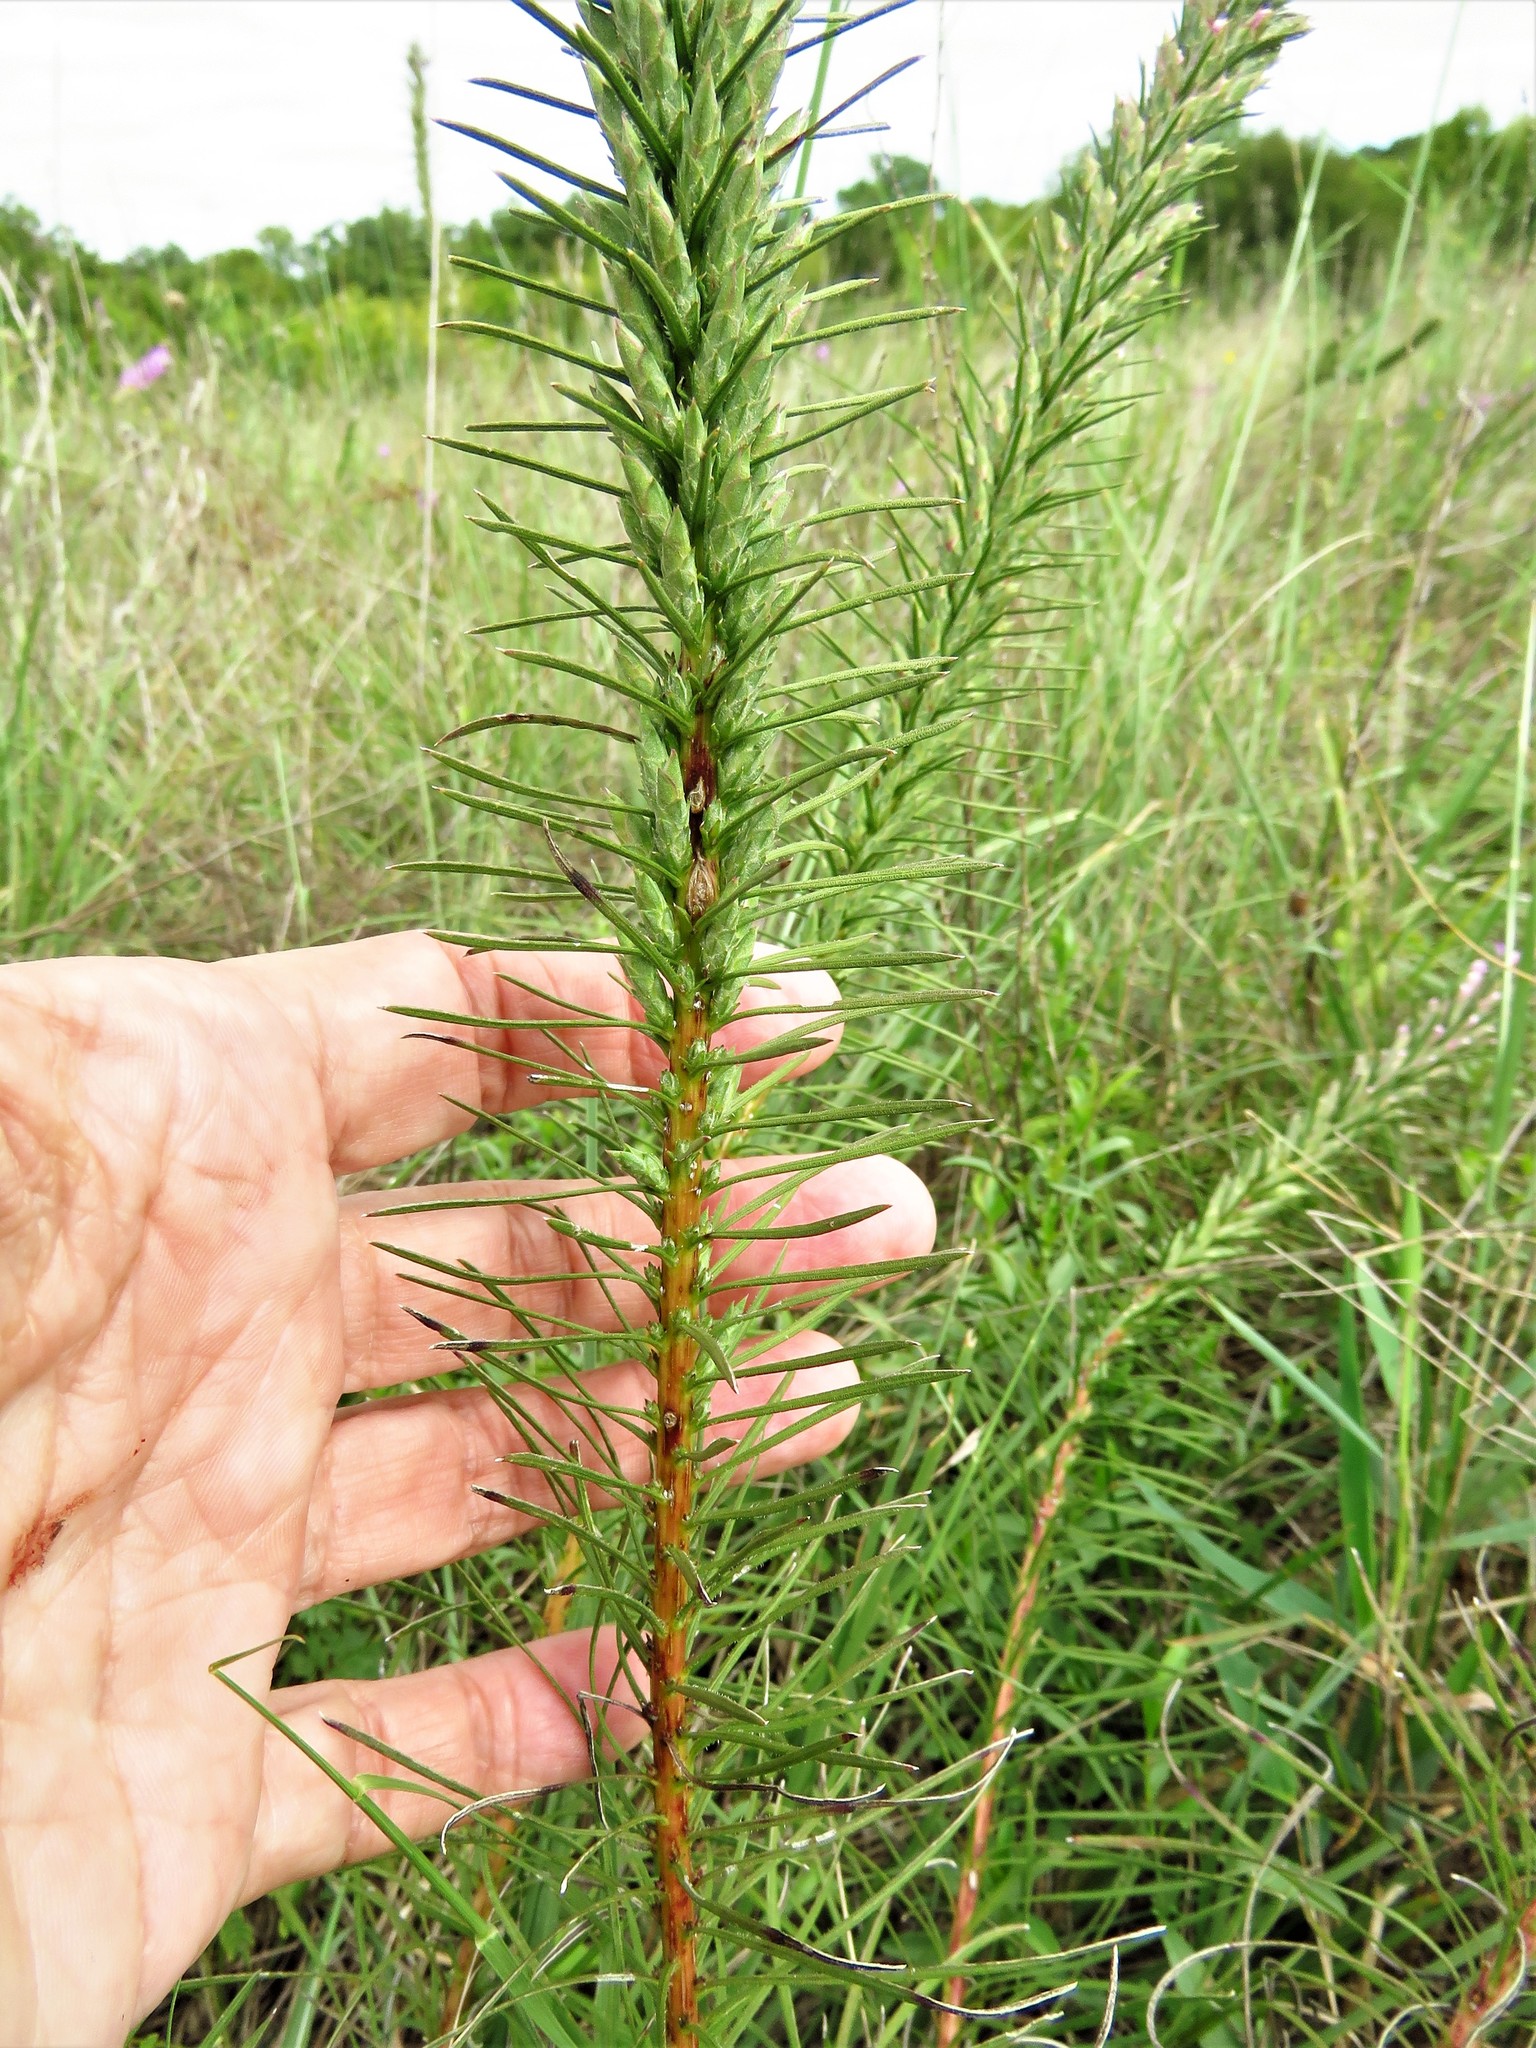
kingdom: Plantae
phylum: Tracheophyta
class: Magnoliopsida
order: Asterales
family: Asteraceae
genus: Liatris
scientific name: Liatris punctata
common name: Dotted gayfeather
